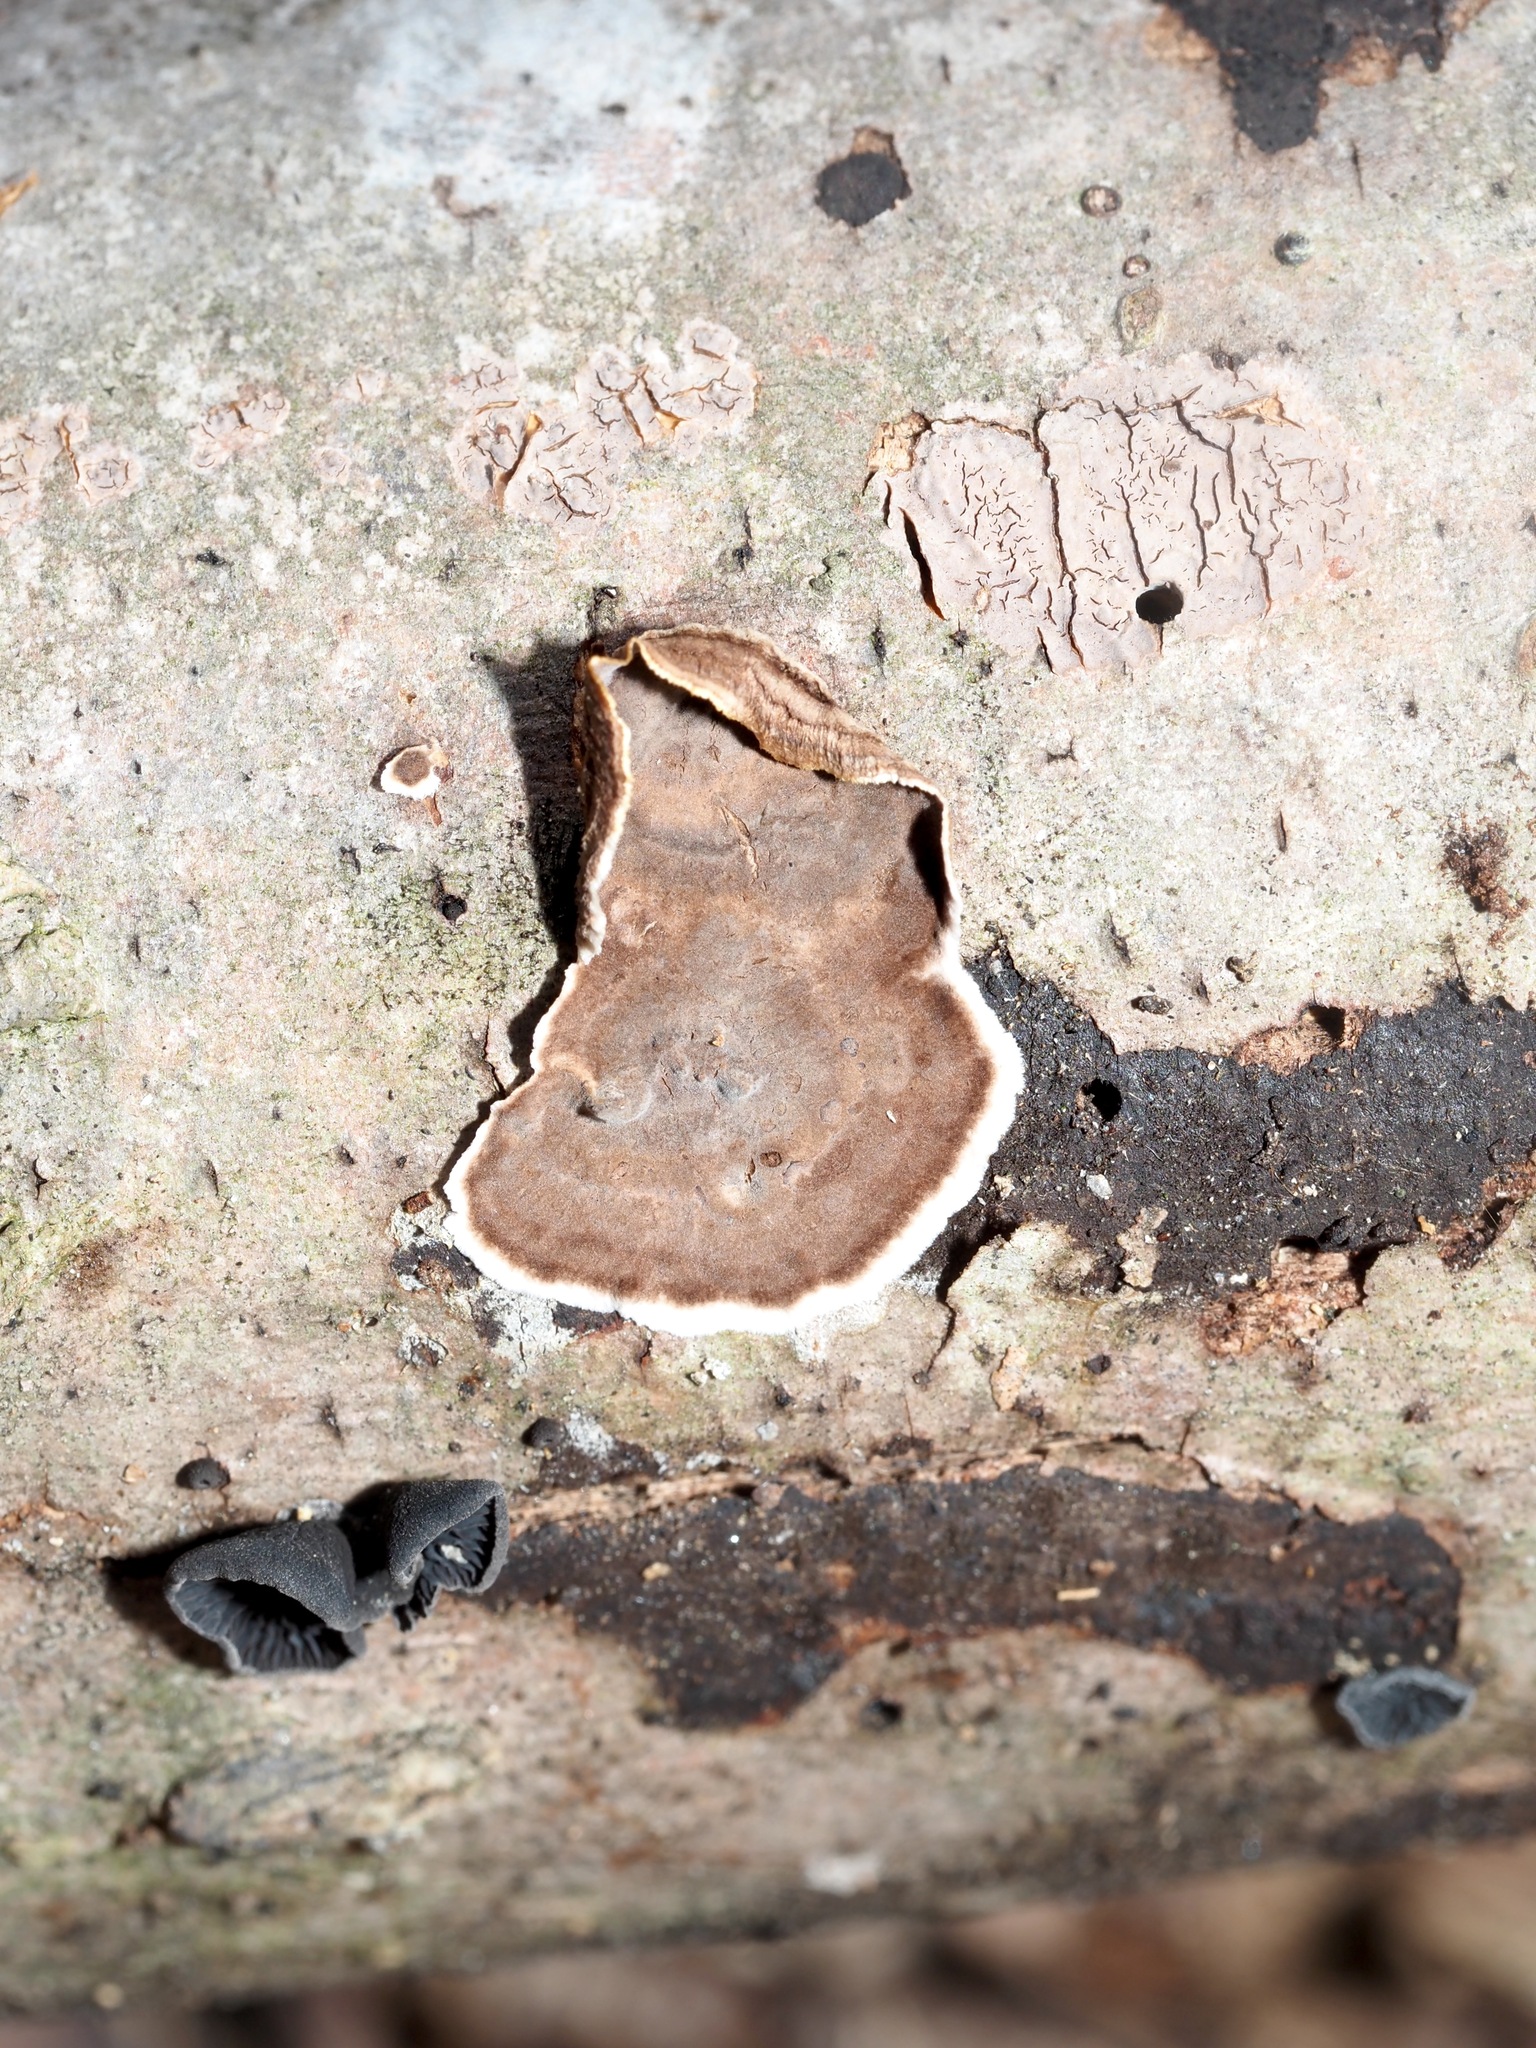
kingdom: Fungi
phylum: Basidiomycota
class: Agaricomycetes
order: Russulales
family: Peniophoraceae
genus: Peniophora
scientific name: Peniophora albobadia
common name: Giraffe spots
